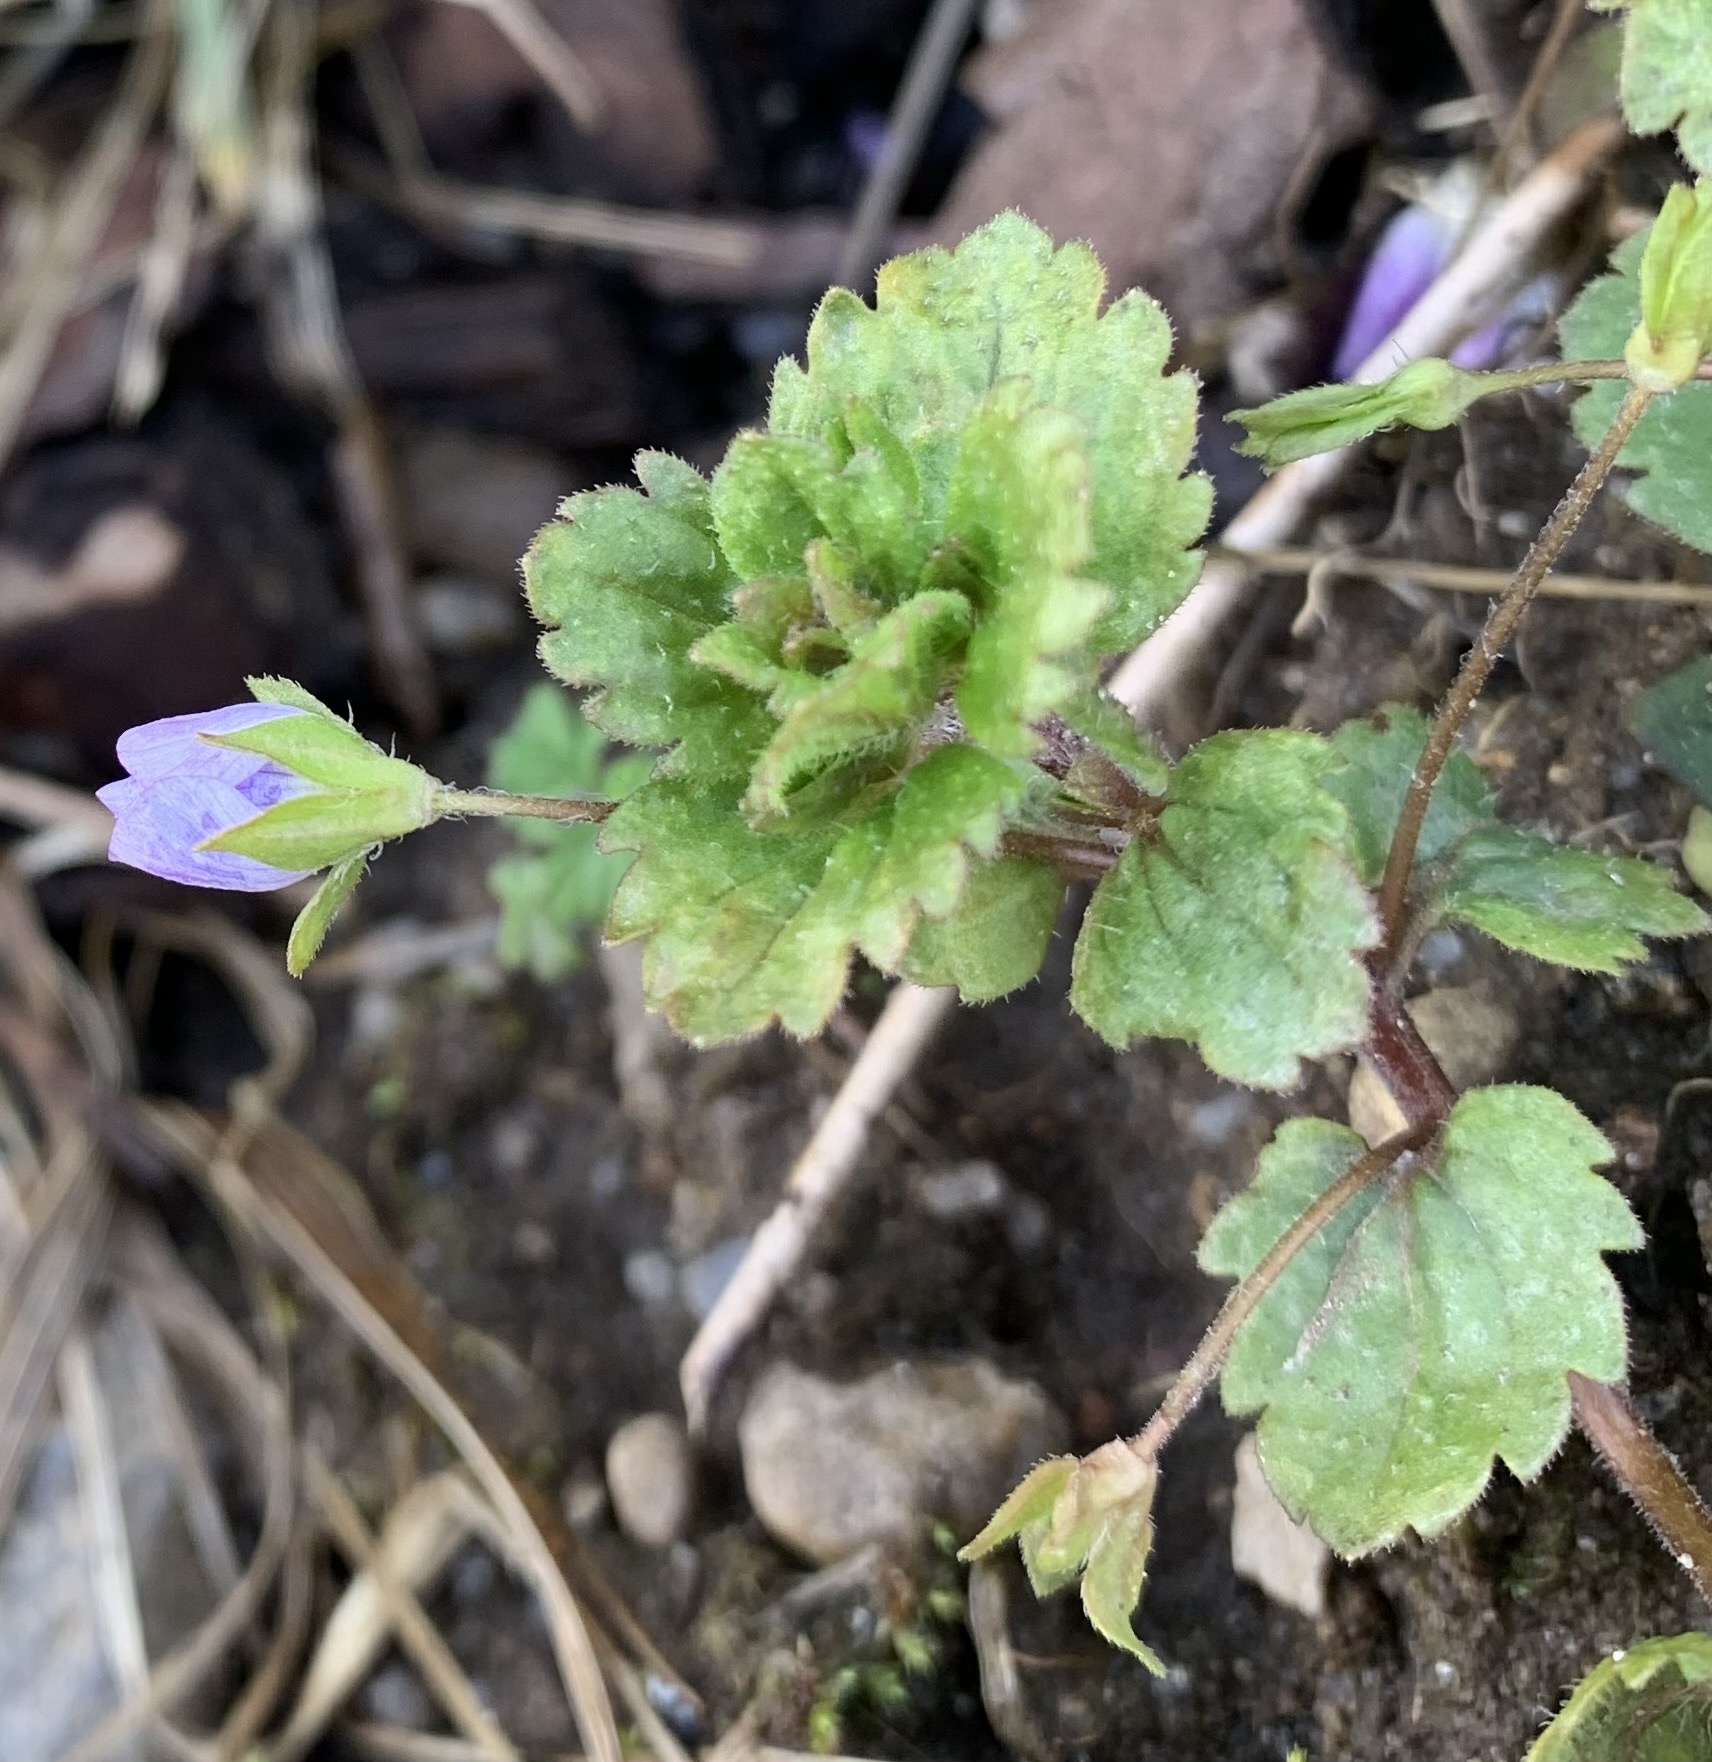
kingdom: Plantae
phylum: Tracheophyta
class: Magnoliopsida
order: Lamiales
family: Plantaginaceae
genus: Veronica
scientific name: Veronica persica
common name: Common field-speedwell
